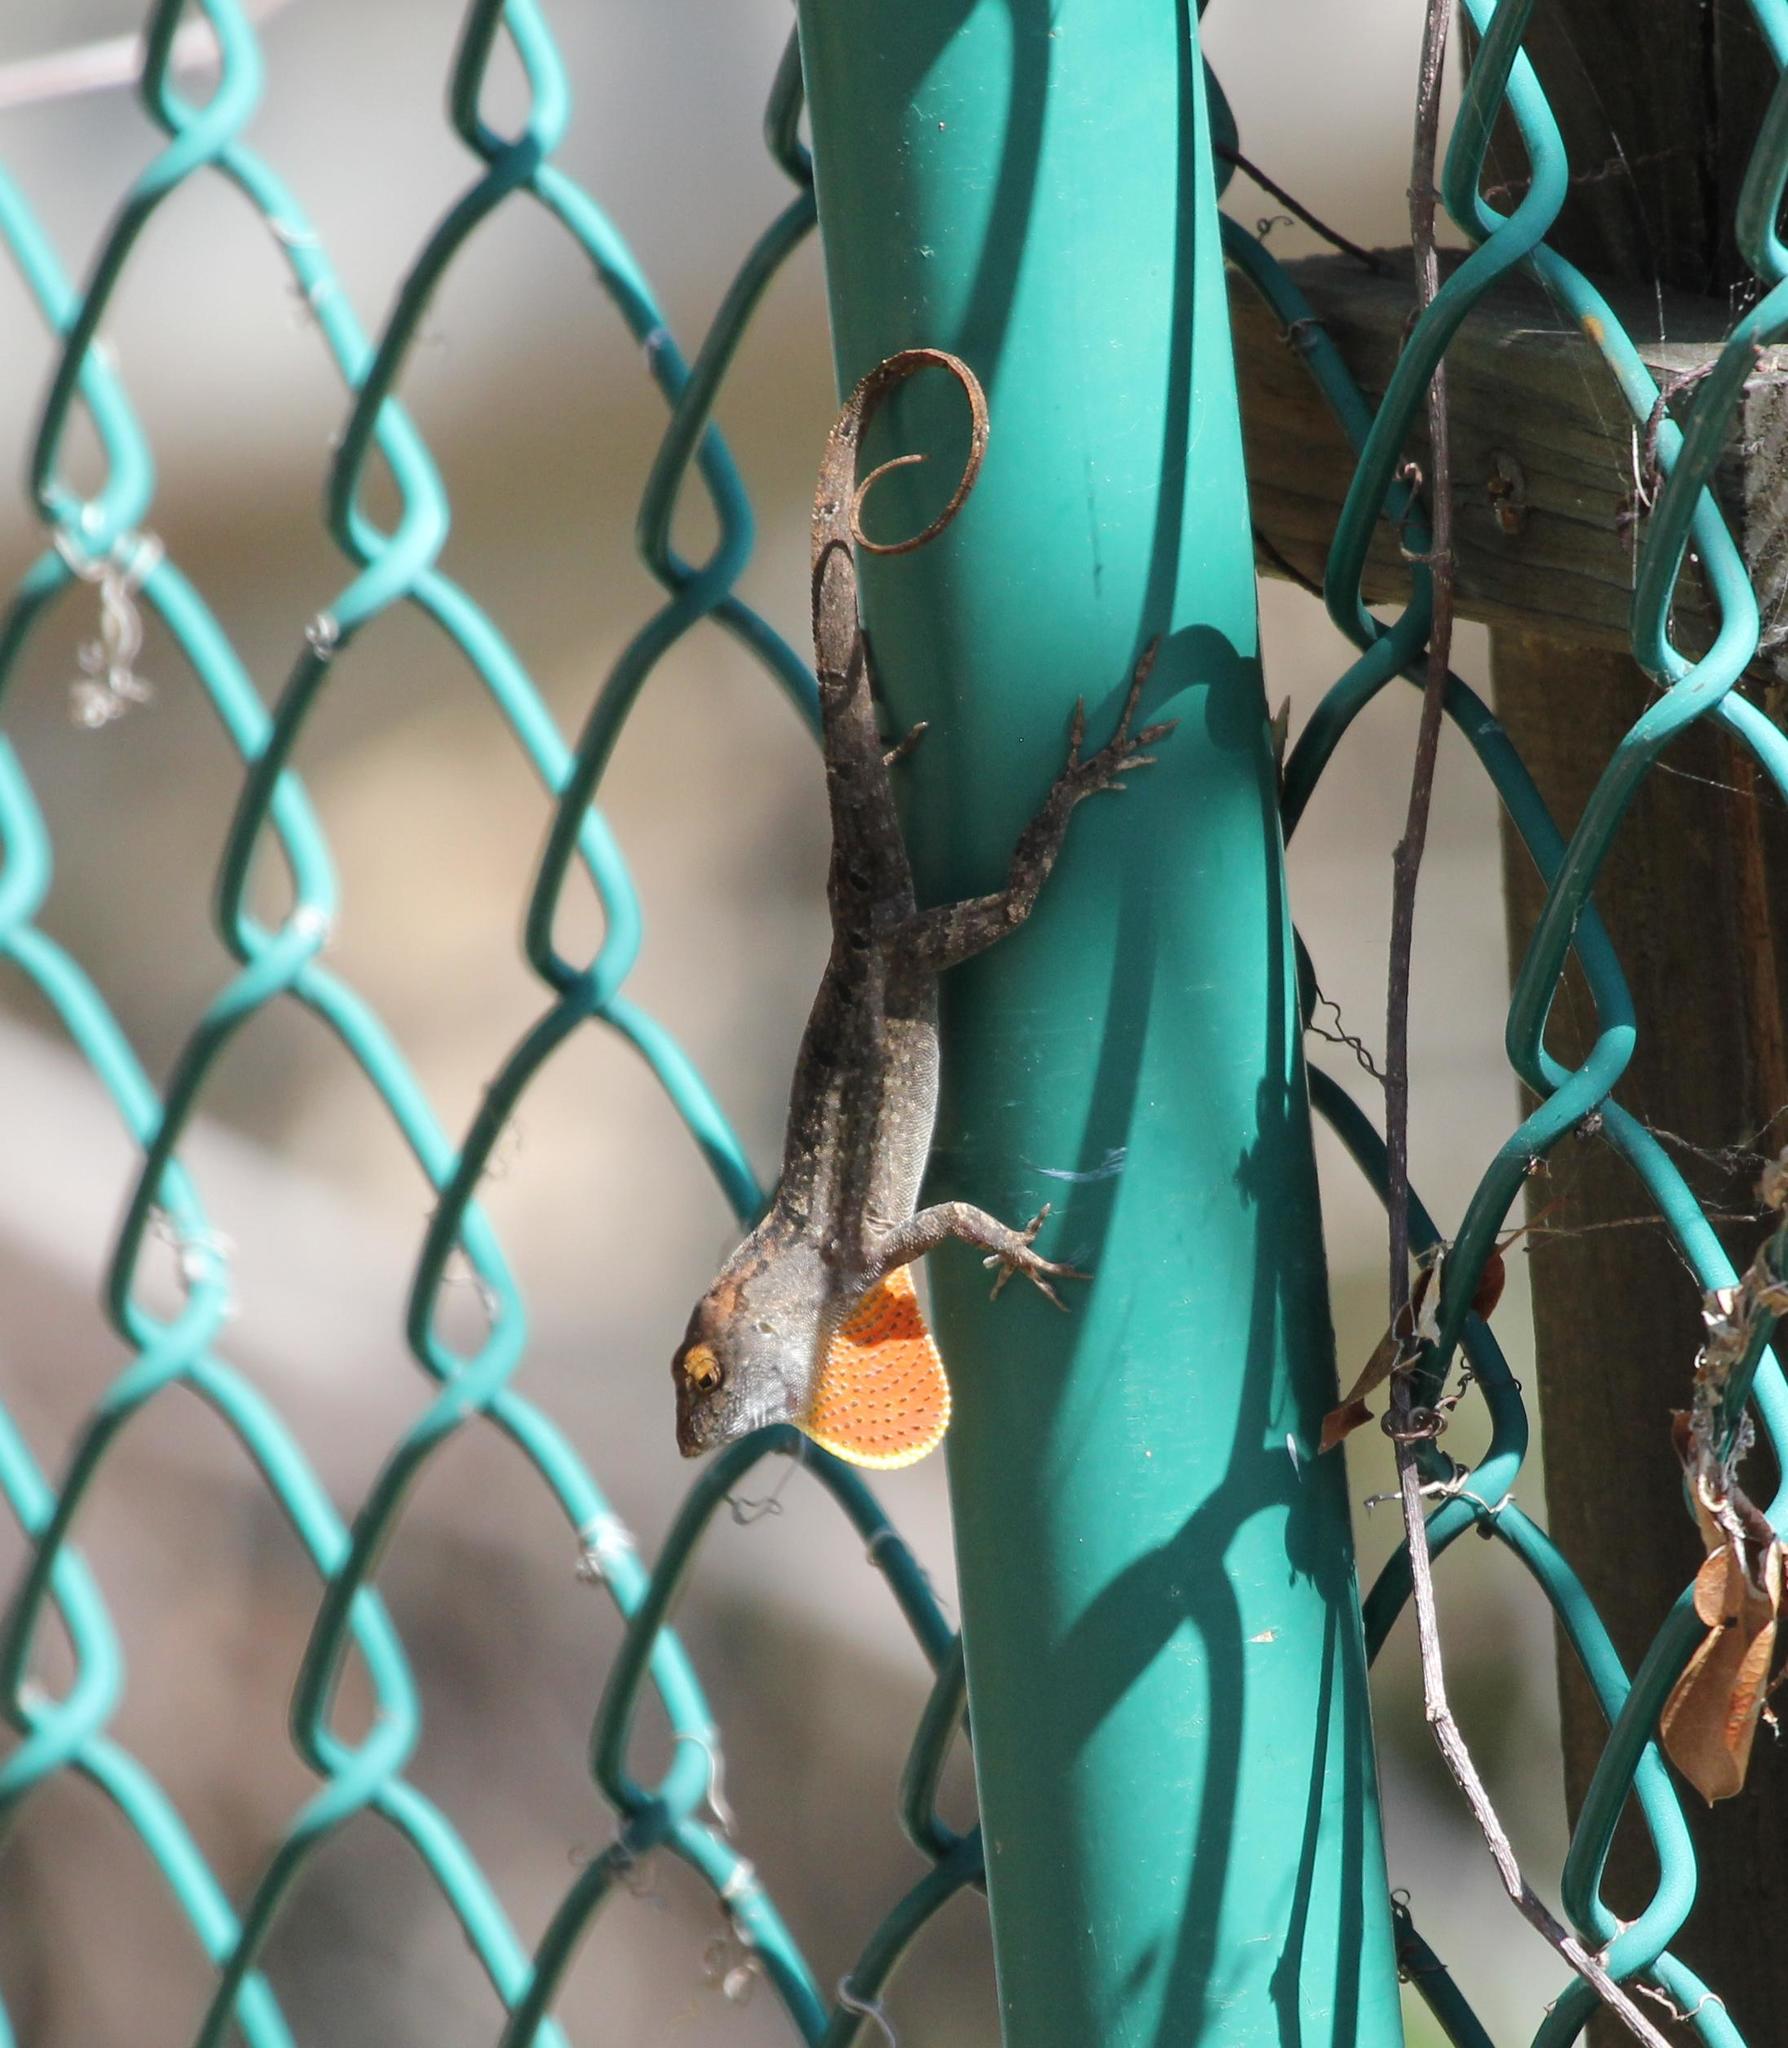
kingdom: Animalia
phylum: Chordata
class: Squamata
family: Dactyloidae
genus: Anolis
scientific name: Anolis sagrei
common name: Brown anole
